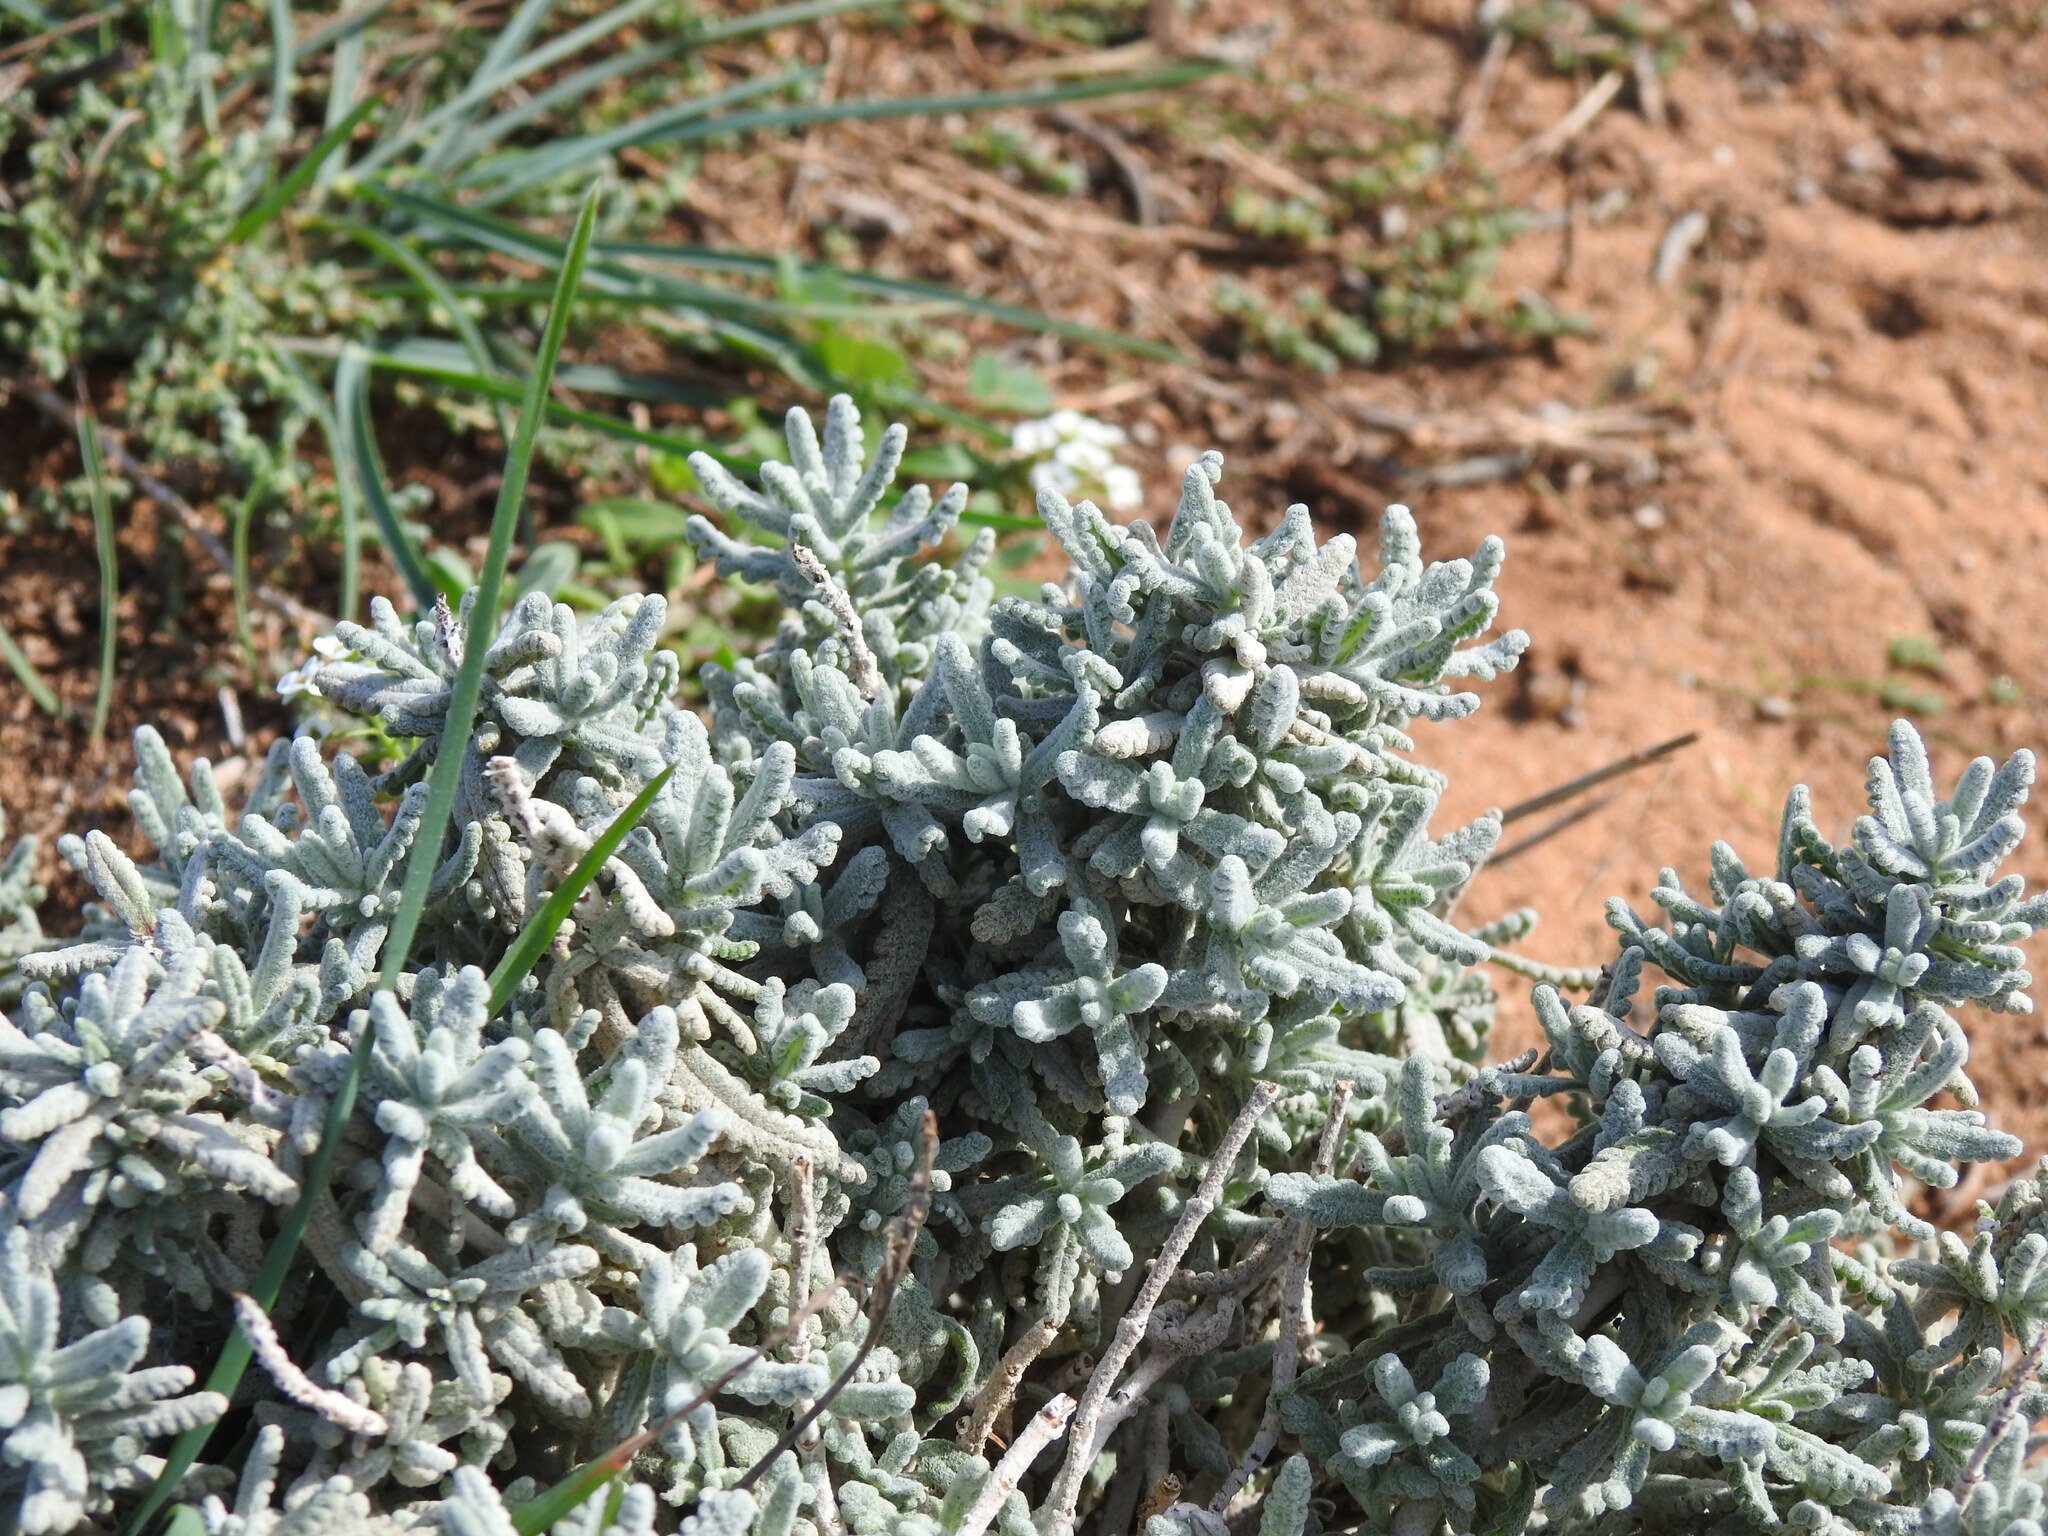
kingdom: Plantae
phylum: Tracheophyta
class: Magnoliopsida
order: Lamiales
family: Lamiaceae
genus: Teucrium
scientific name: Teucrium vincentinum
